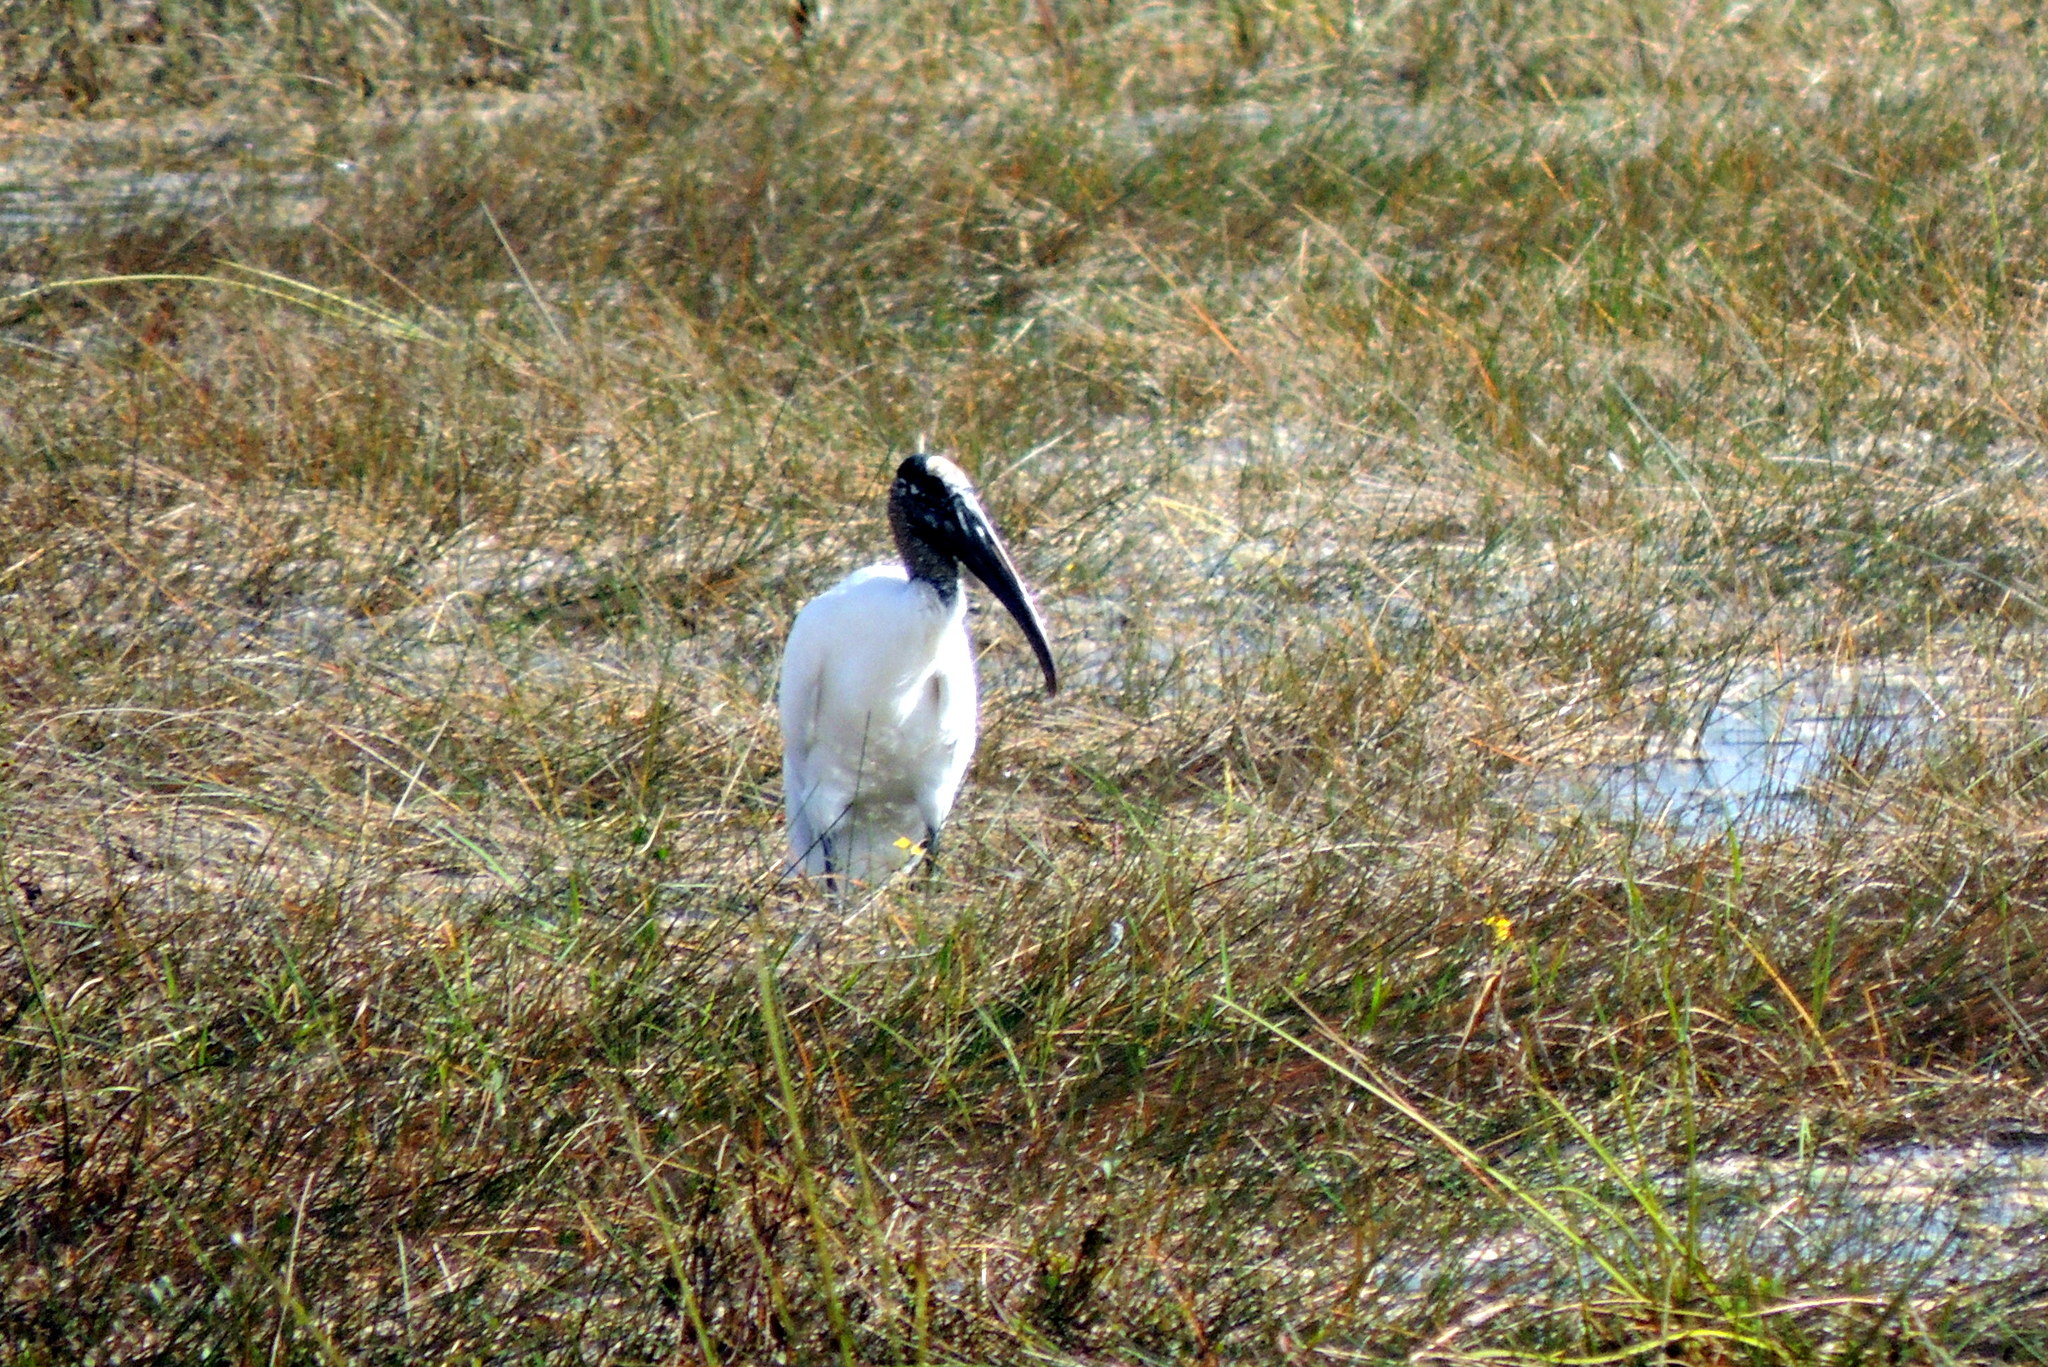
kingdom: Animalia
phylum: Chordata
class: Aves
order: Ciconiiformes
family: Ciconiidae
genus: Mycteria
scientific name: Mycteria americana
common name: Wood stork
